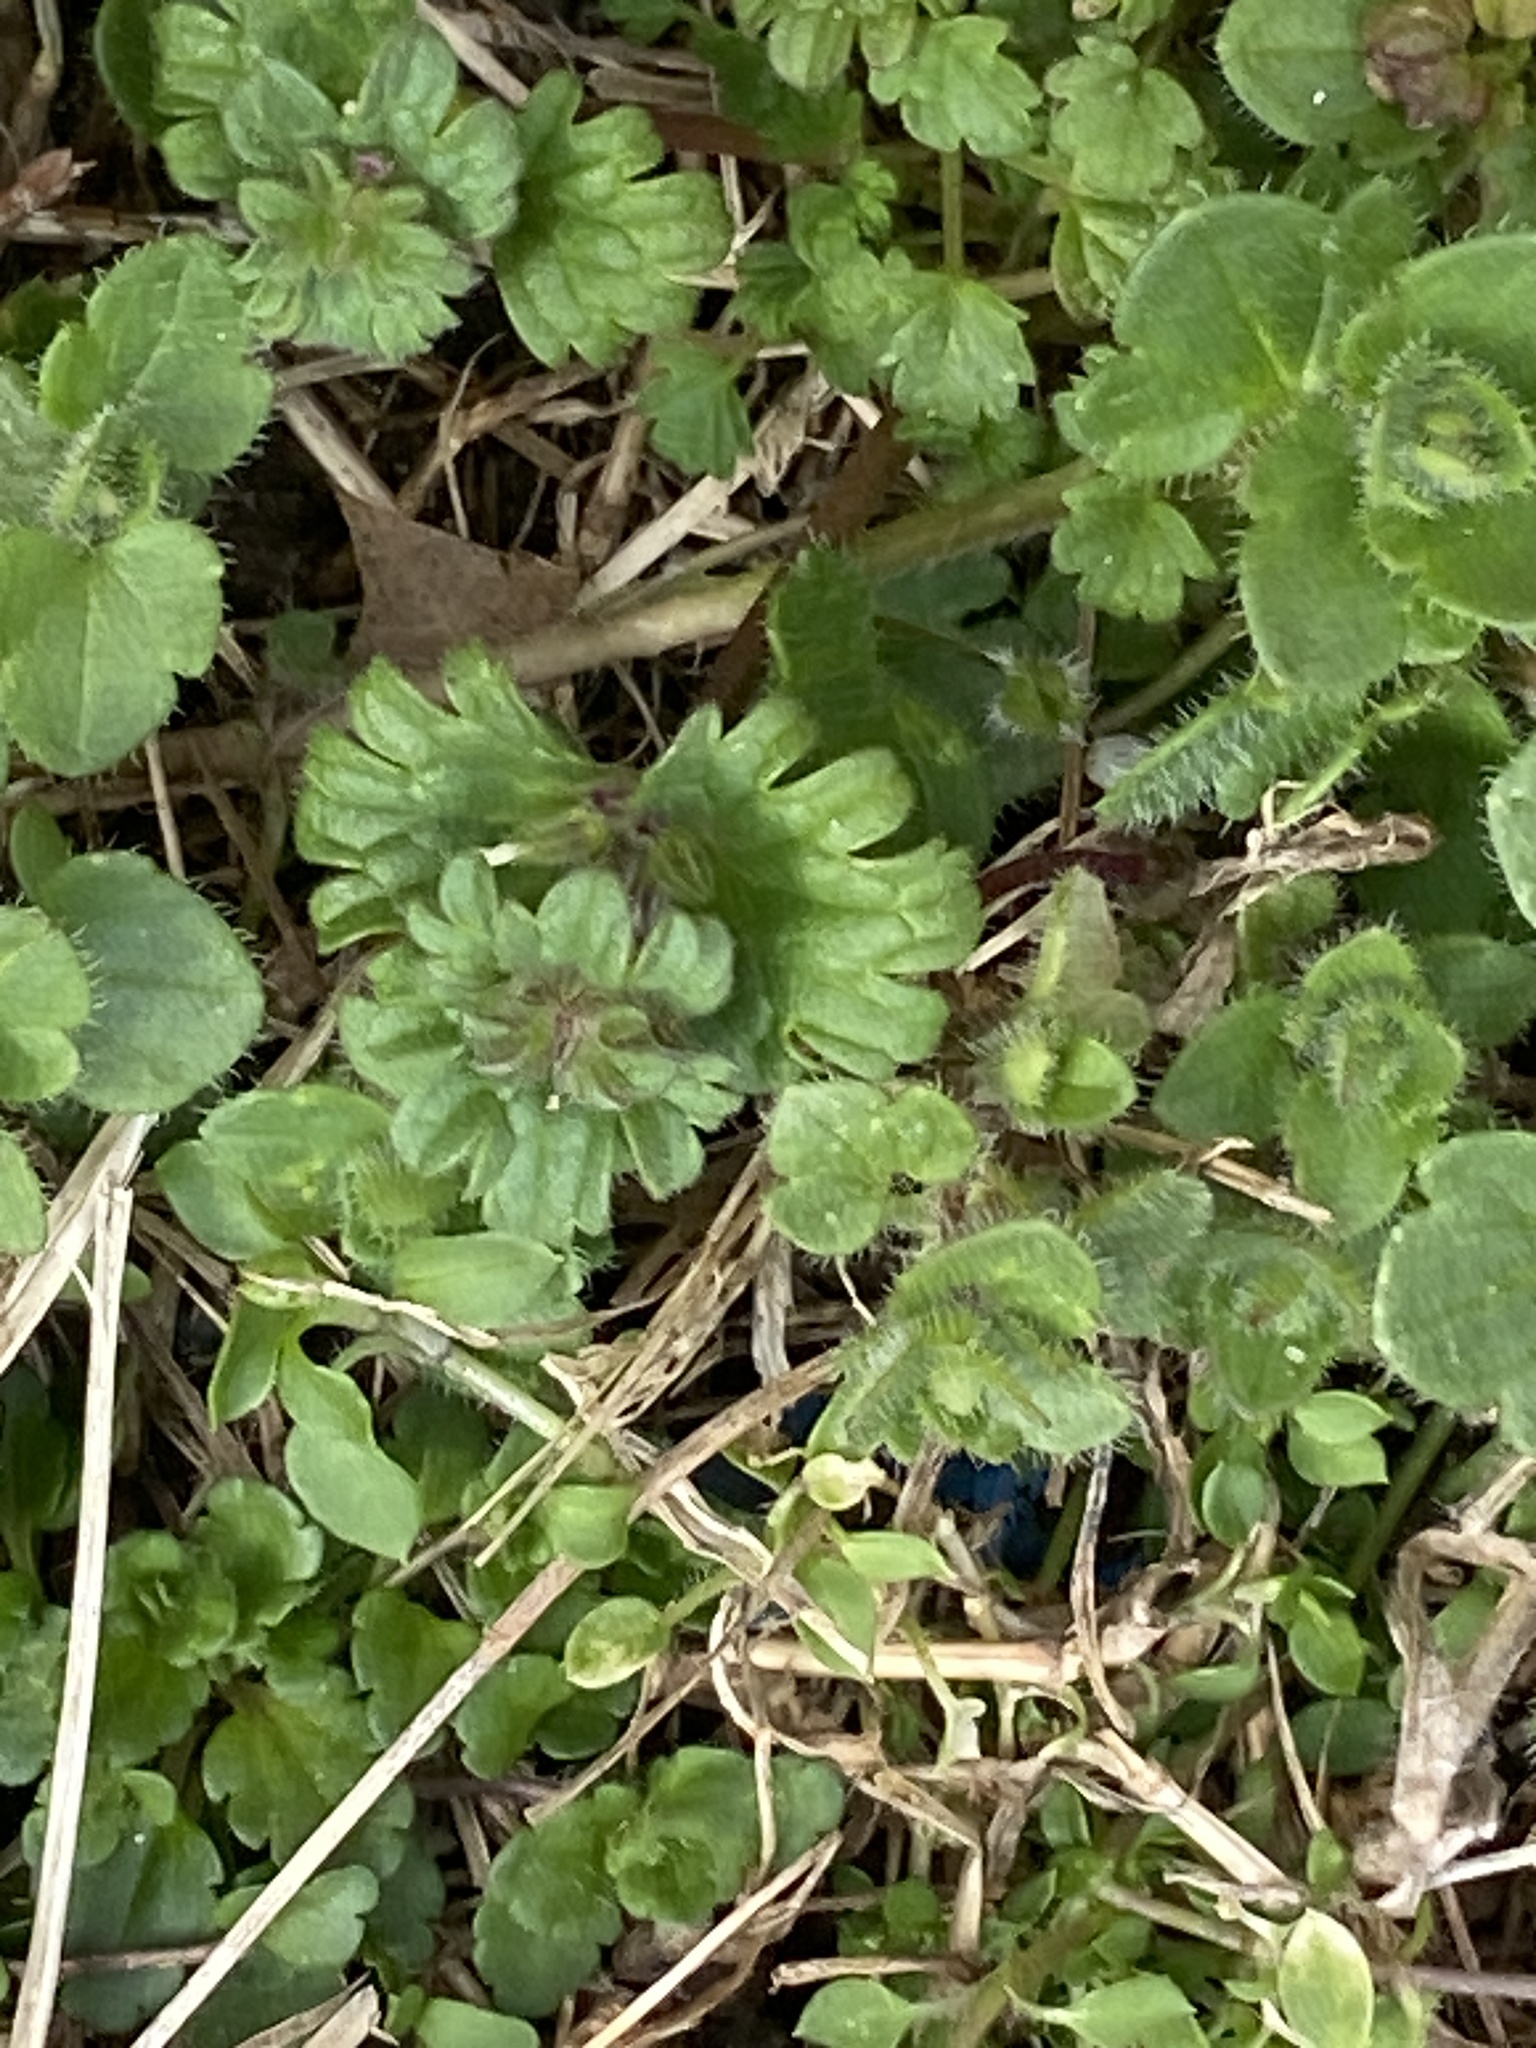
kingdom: Plantae
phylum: Tracheophyta
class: Magnoliopsida
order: Lamiales
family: Lamiaceae
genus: Lamium
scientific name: Lamium amplexicaule
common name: Henbit dead-nettle
